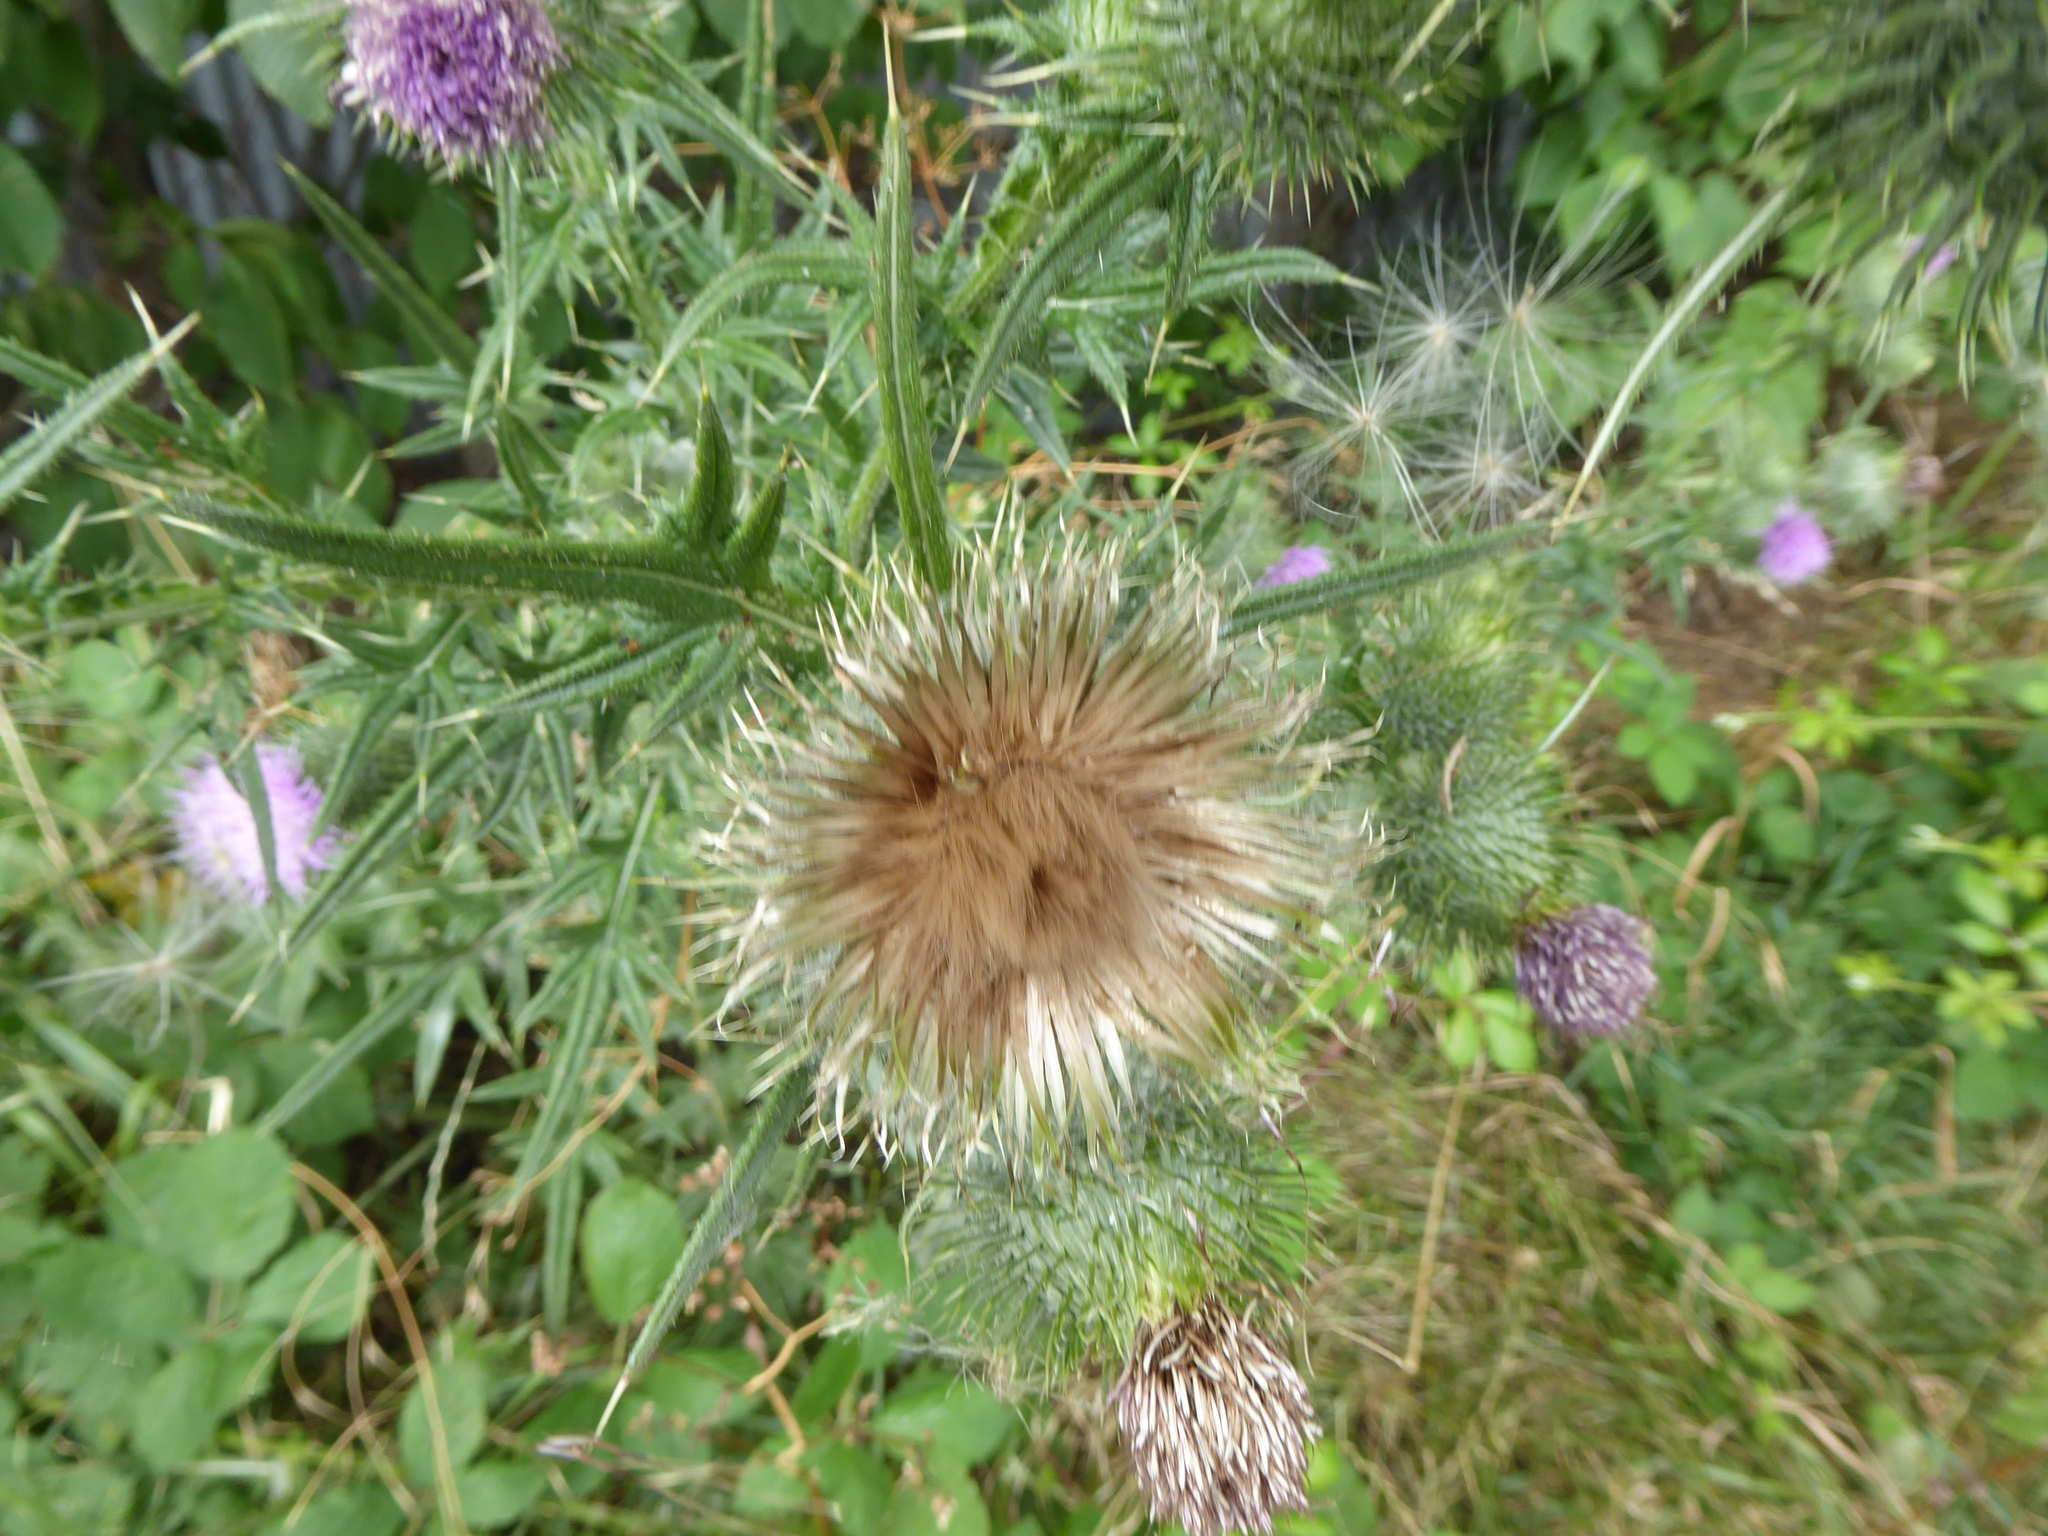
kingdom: Plantae
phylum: Tracheophyta
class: Magnoliopsida
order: Asterales
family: Asteraceae
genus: Cirsium
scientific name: Cirsium vulgare
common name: Bull thistle
